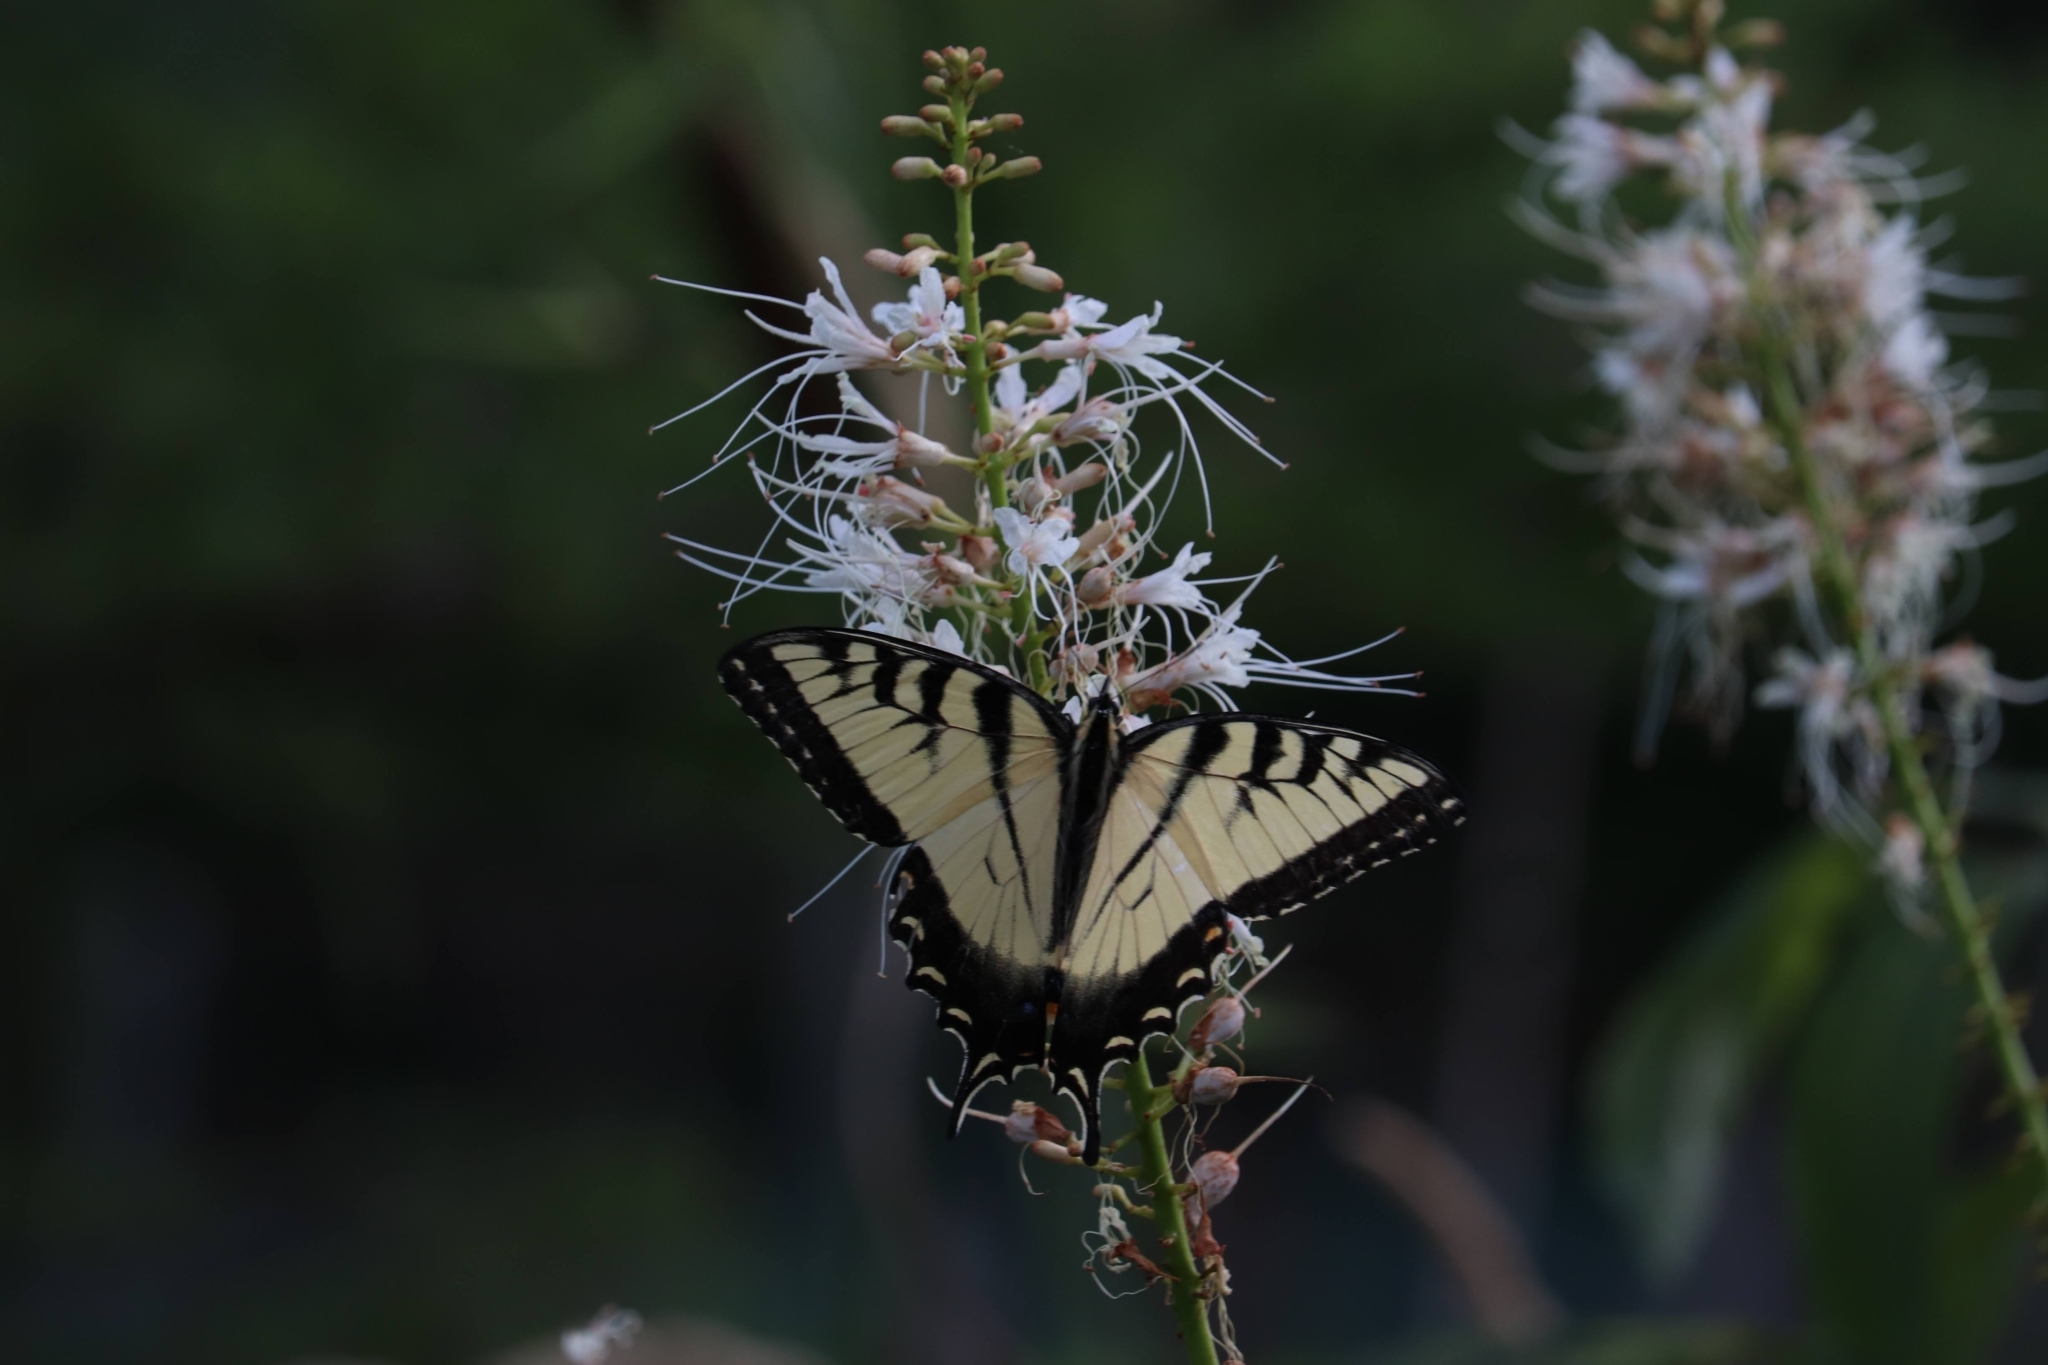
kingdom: Animalia
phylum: Arthropoda
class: Insecta
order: Lepidoptera
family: Papilionidae
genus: Pterourus
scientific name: Pterourus
